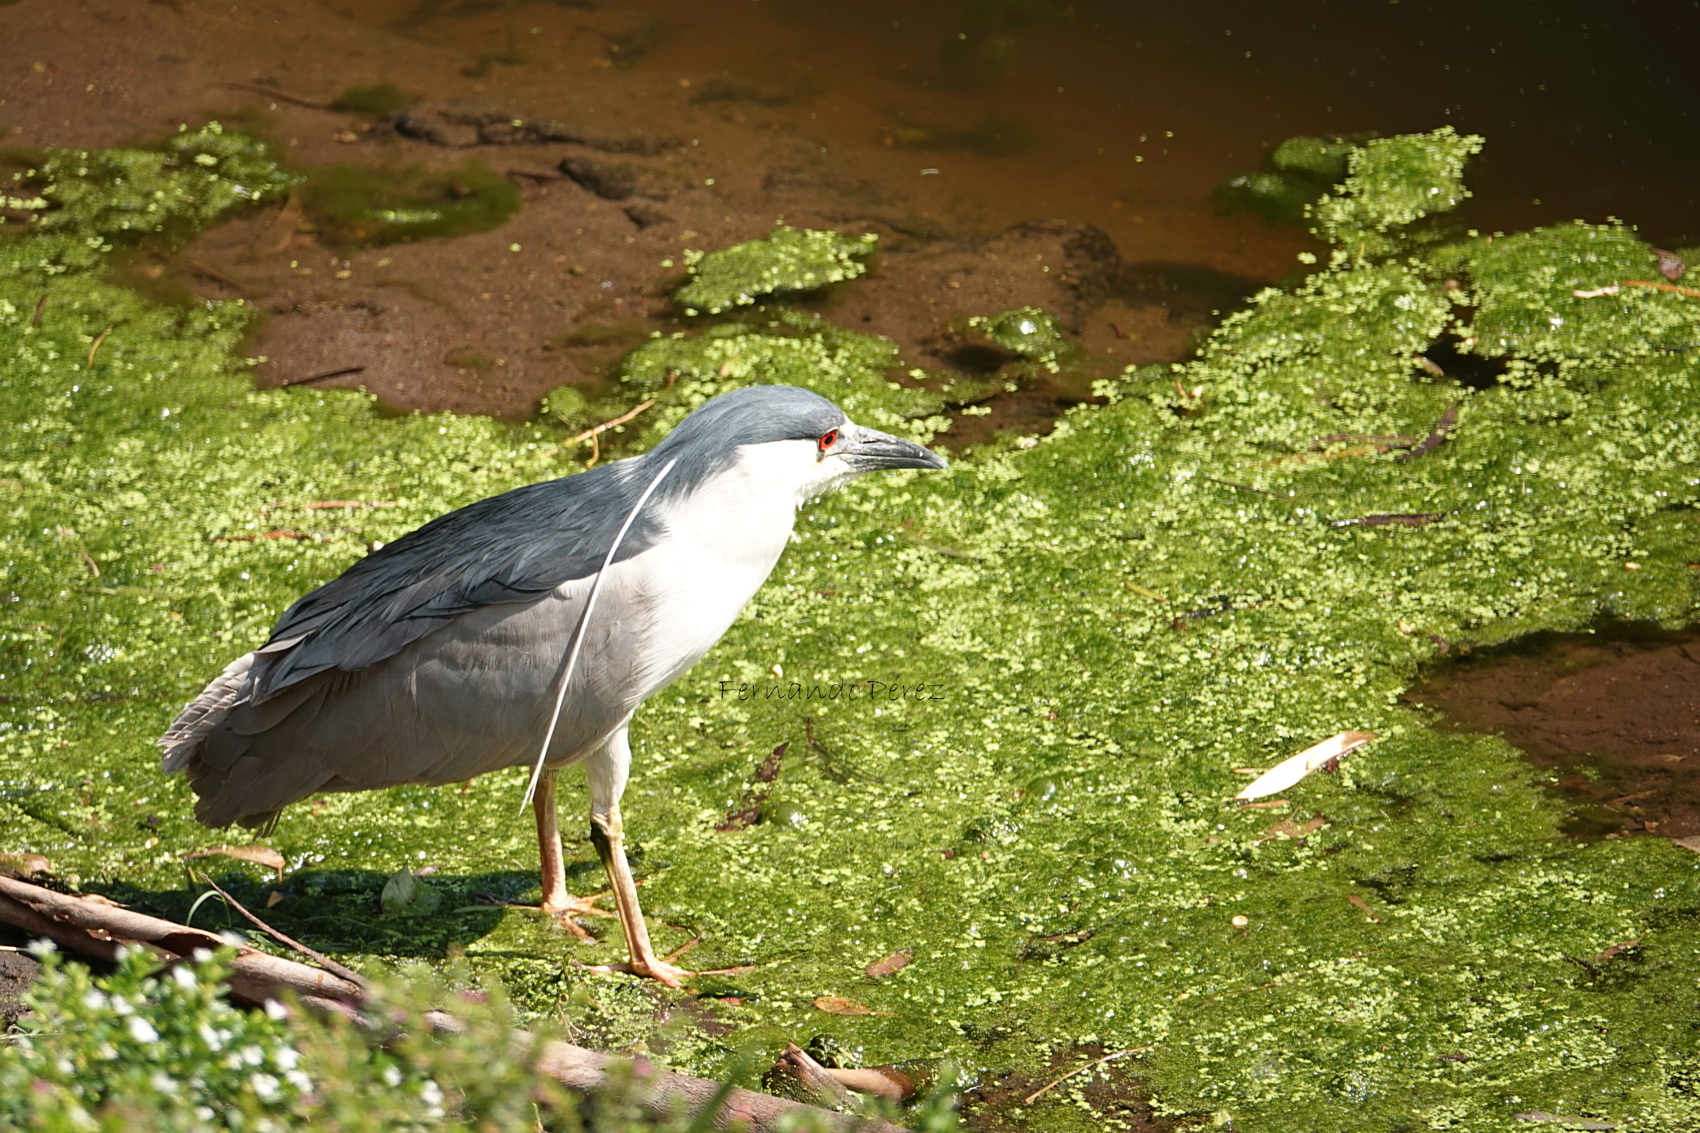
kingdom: Animalia
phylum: Chordata
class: Aves
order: Pelecaniformes
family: Ardeidae
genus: Nycticorax
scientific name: Nycticorax nycticorax
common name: Black-crowned night heron
